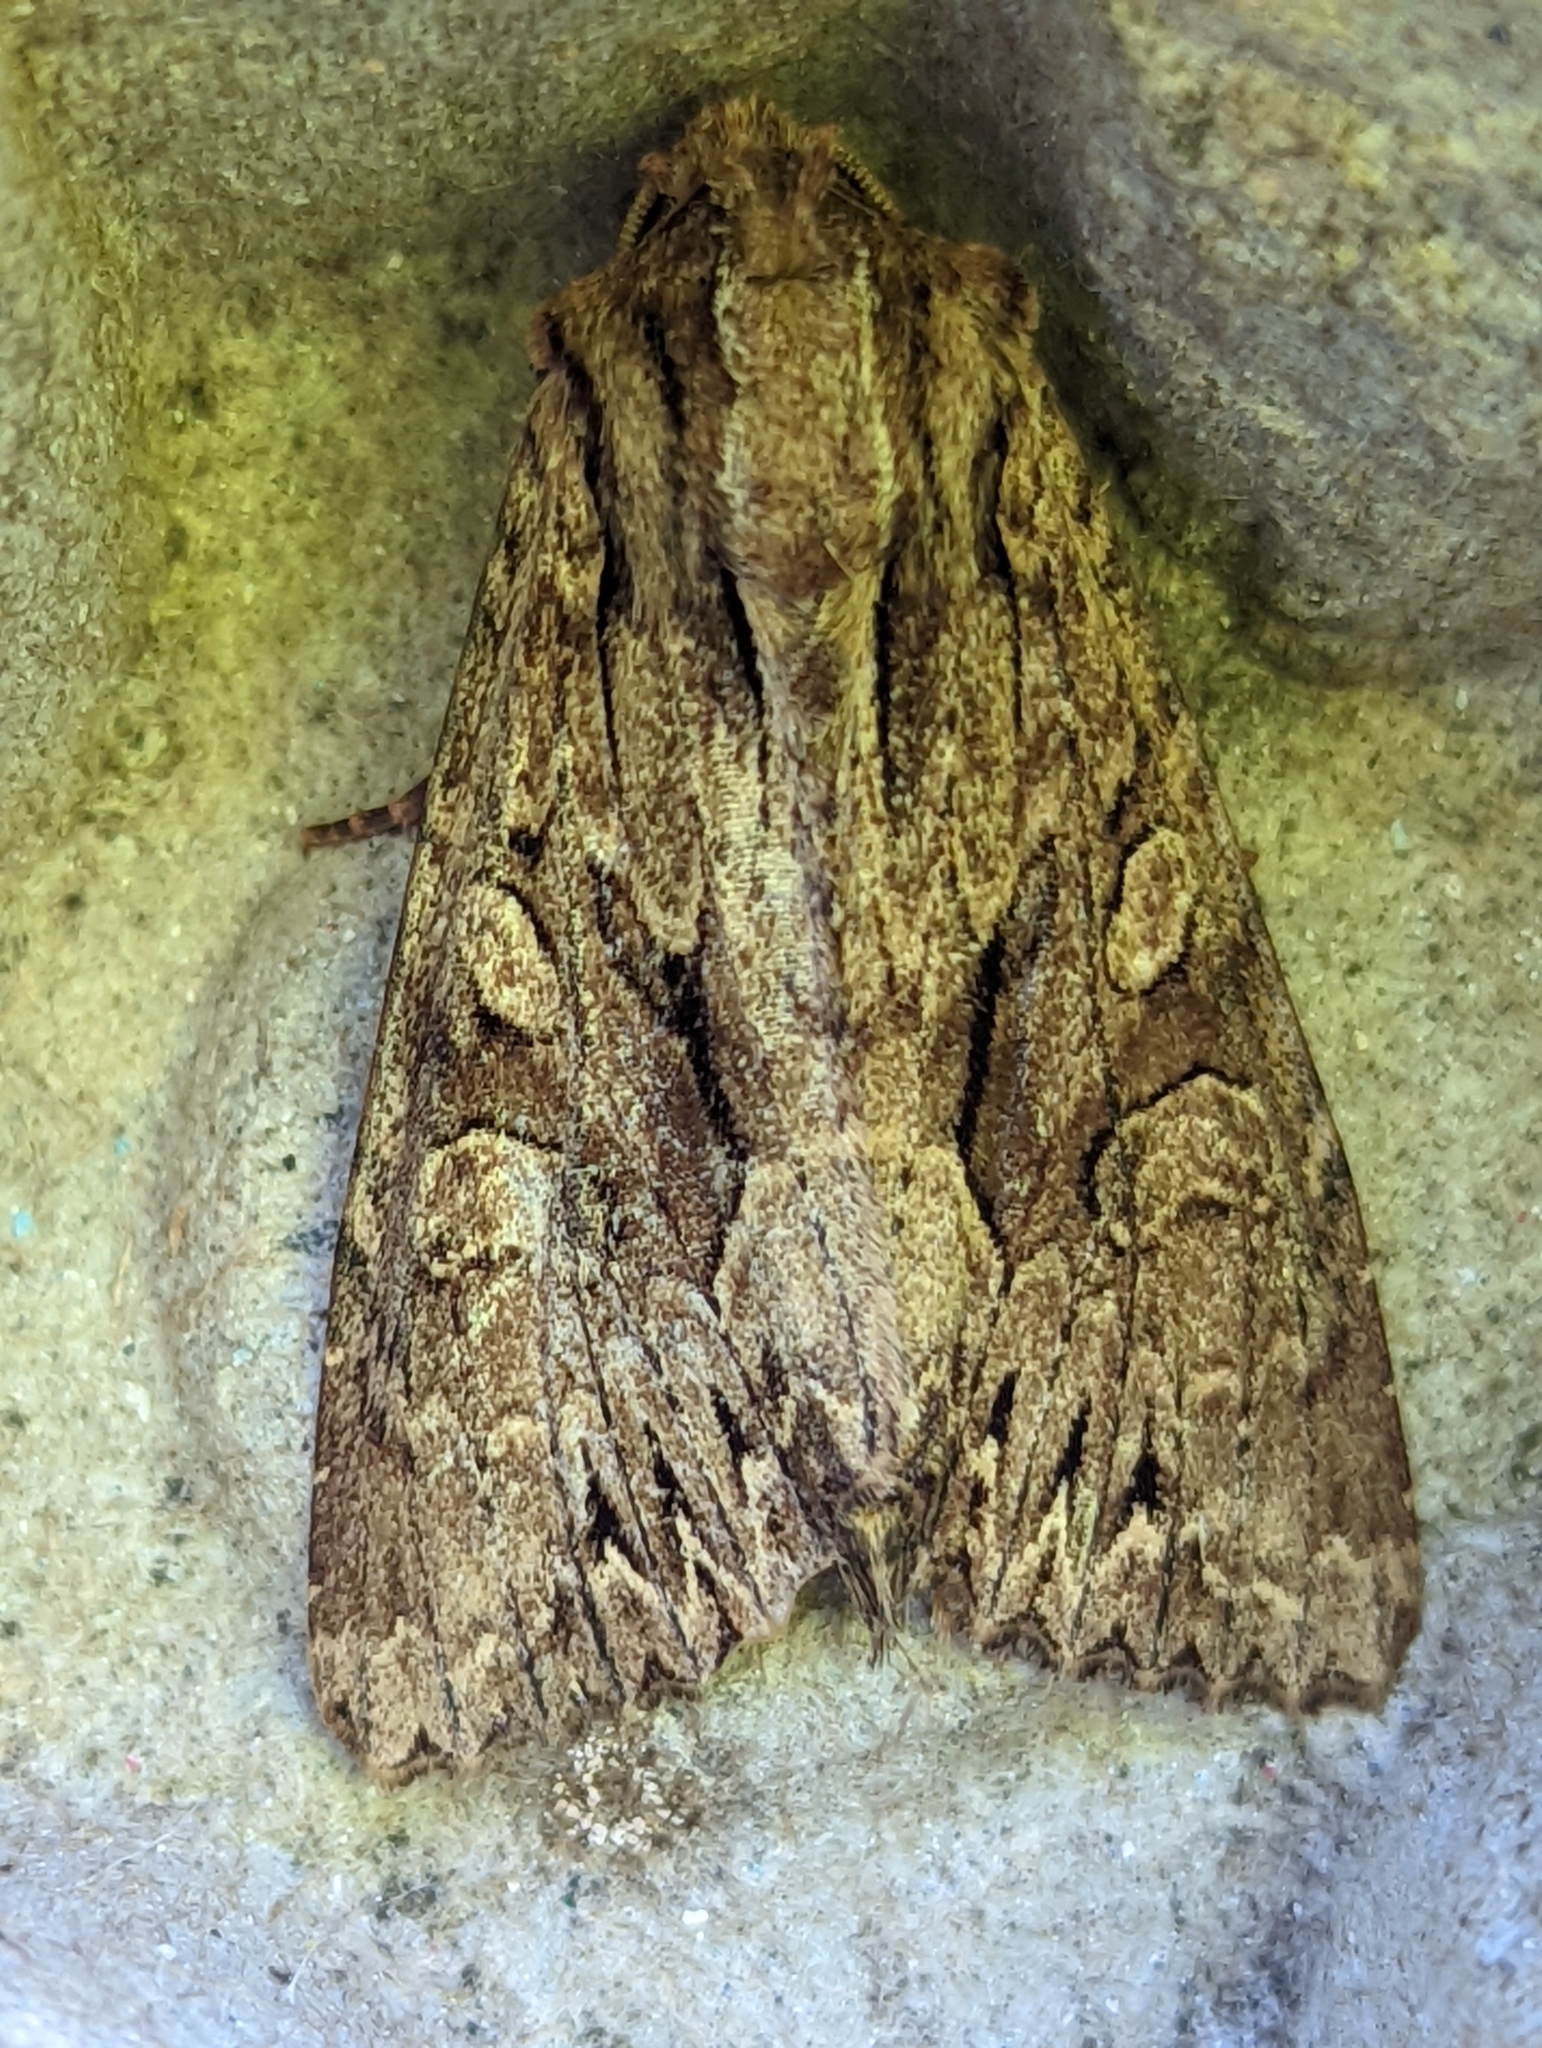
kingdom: Animalia
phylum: Arthropoda
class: Insecta
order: Lepidoptera
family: Noctuidae
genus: Apamea
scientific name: Apamea monoglypha
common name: Dark arches
